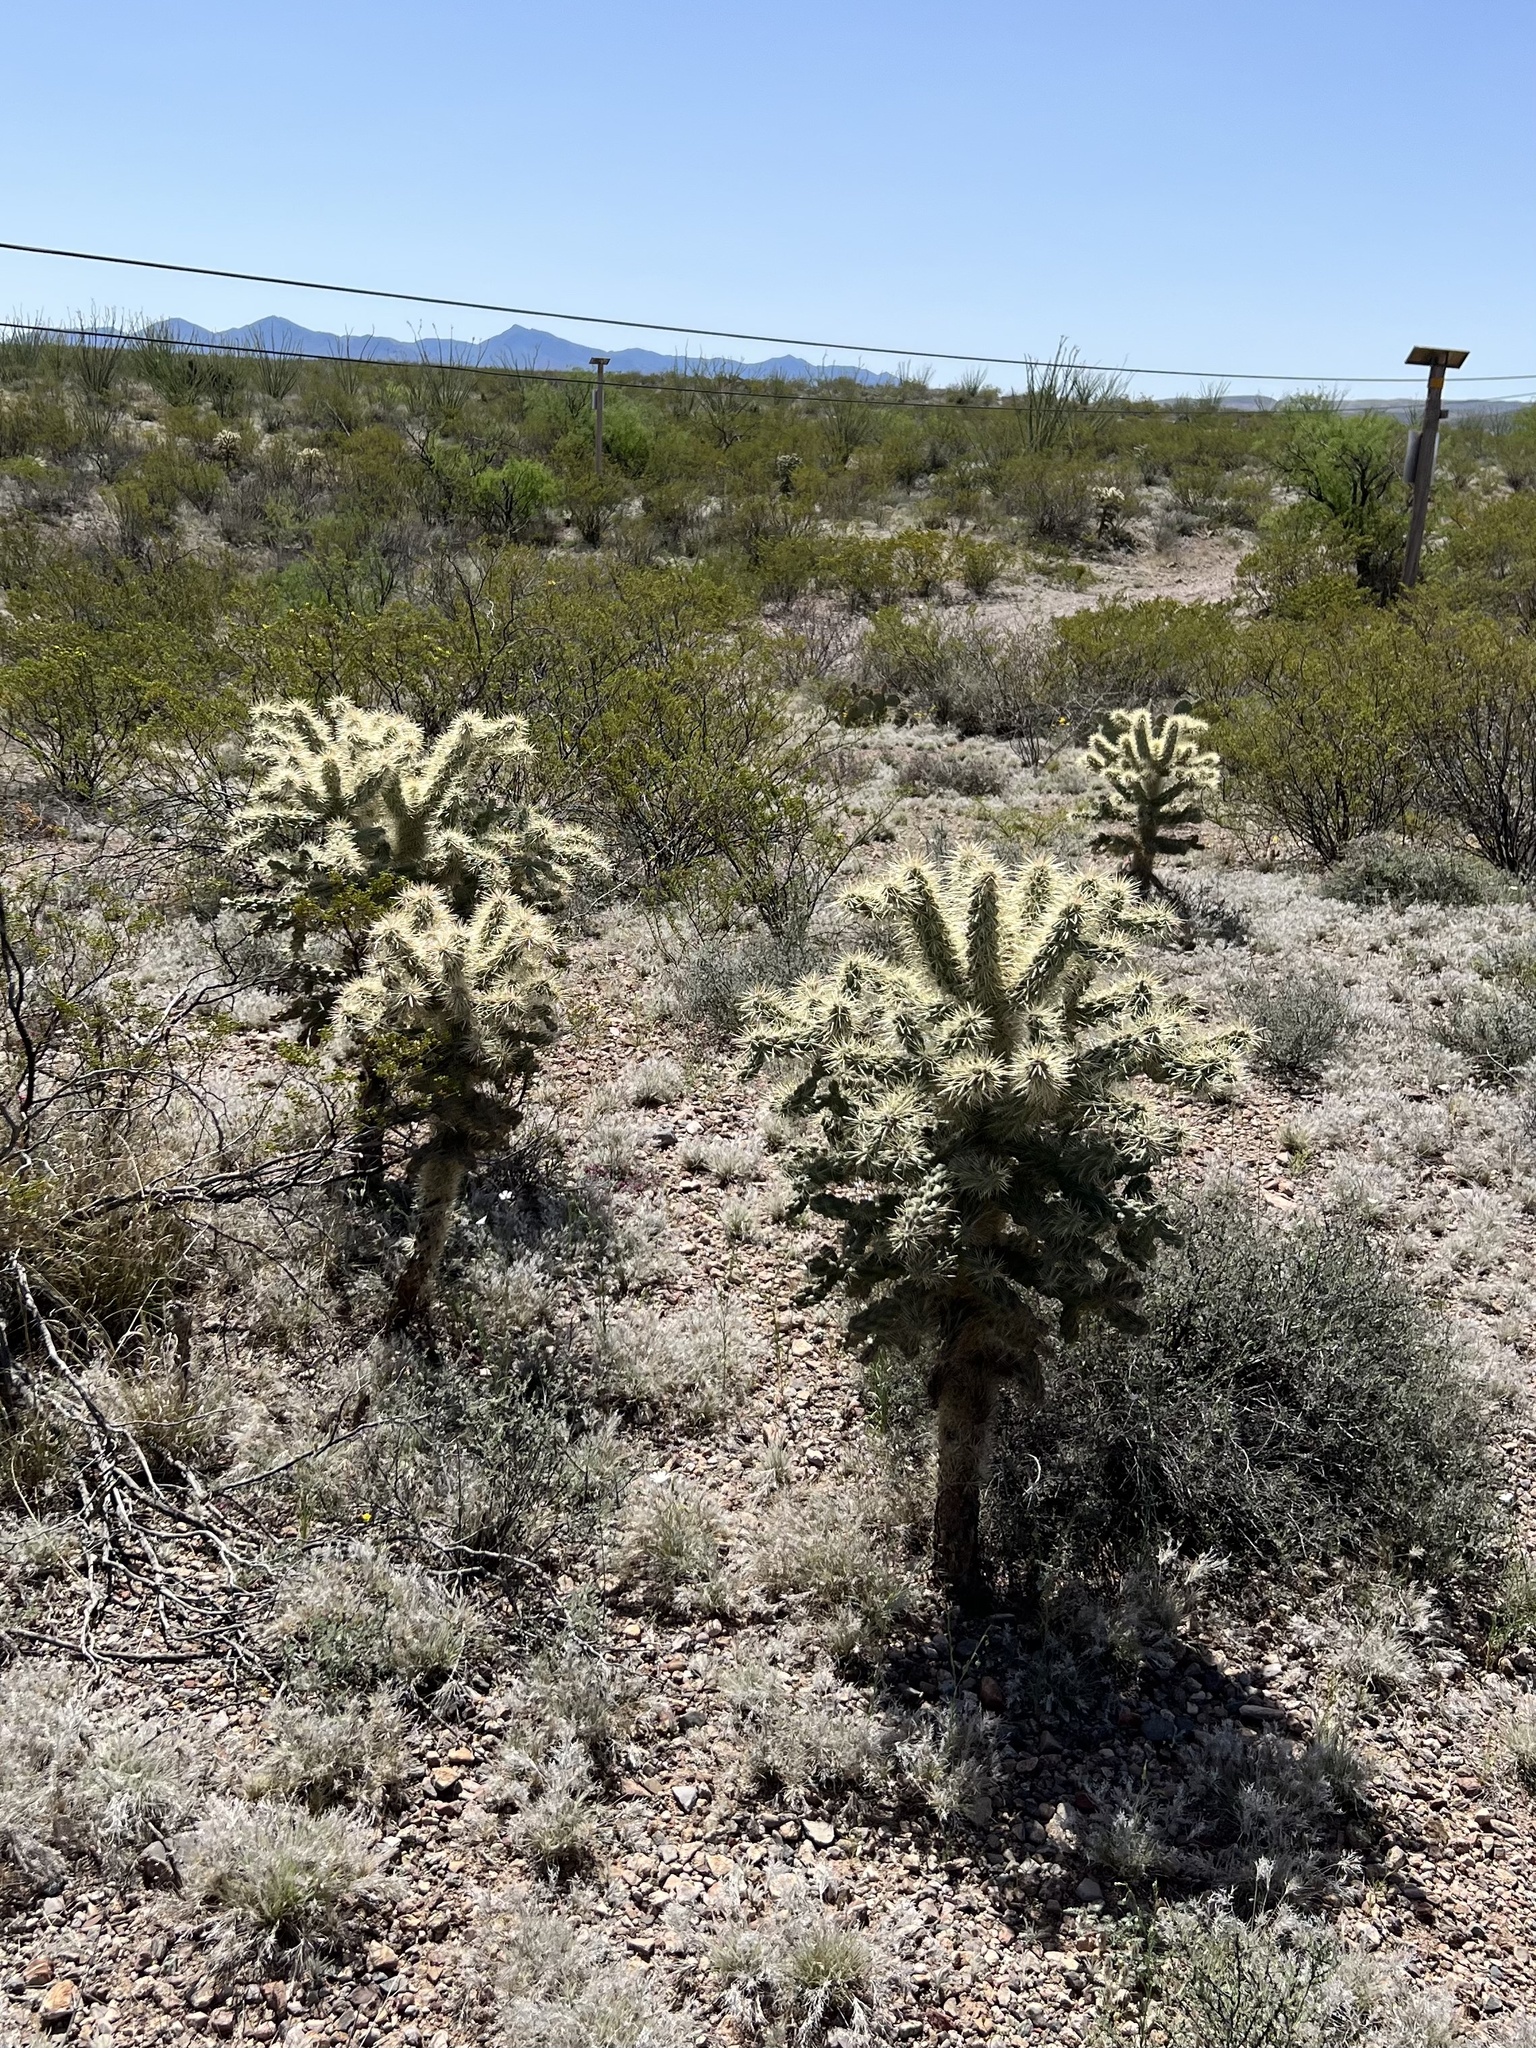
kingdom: Plantae
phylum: Tracheophyta
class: Magnoliopsida
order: Caryophyllales
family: Cactaceae
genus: Cylindropuntia
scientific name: Cylindropuntia fulgida
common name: Jumping cholla
